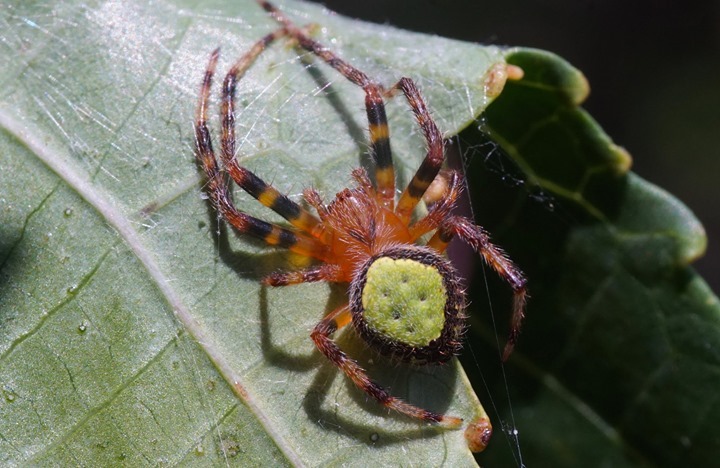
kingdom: Animalia
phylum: Arthropoda
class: Arachnida
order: Araneae
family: Araneidae
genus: Eriophora
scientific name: Eriophora ravilla
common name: Orb weavers
